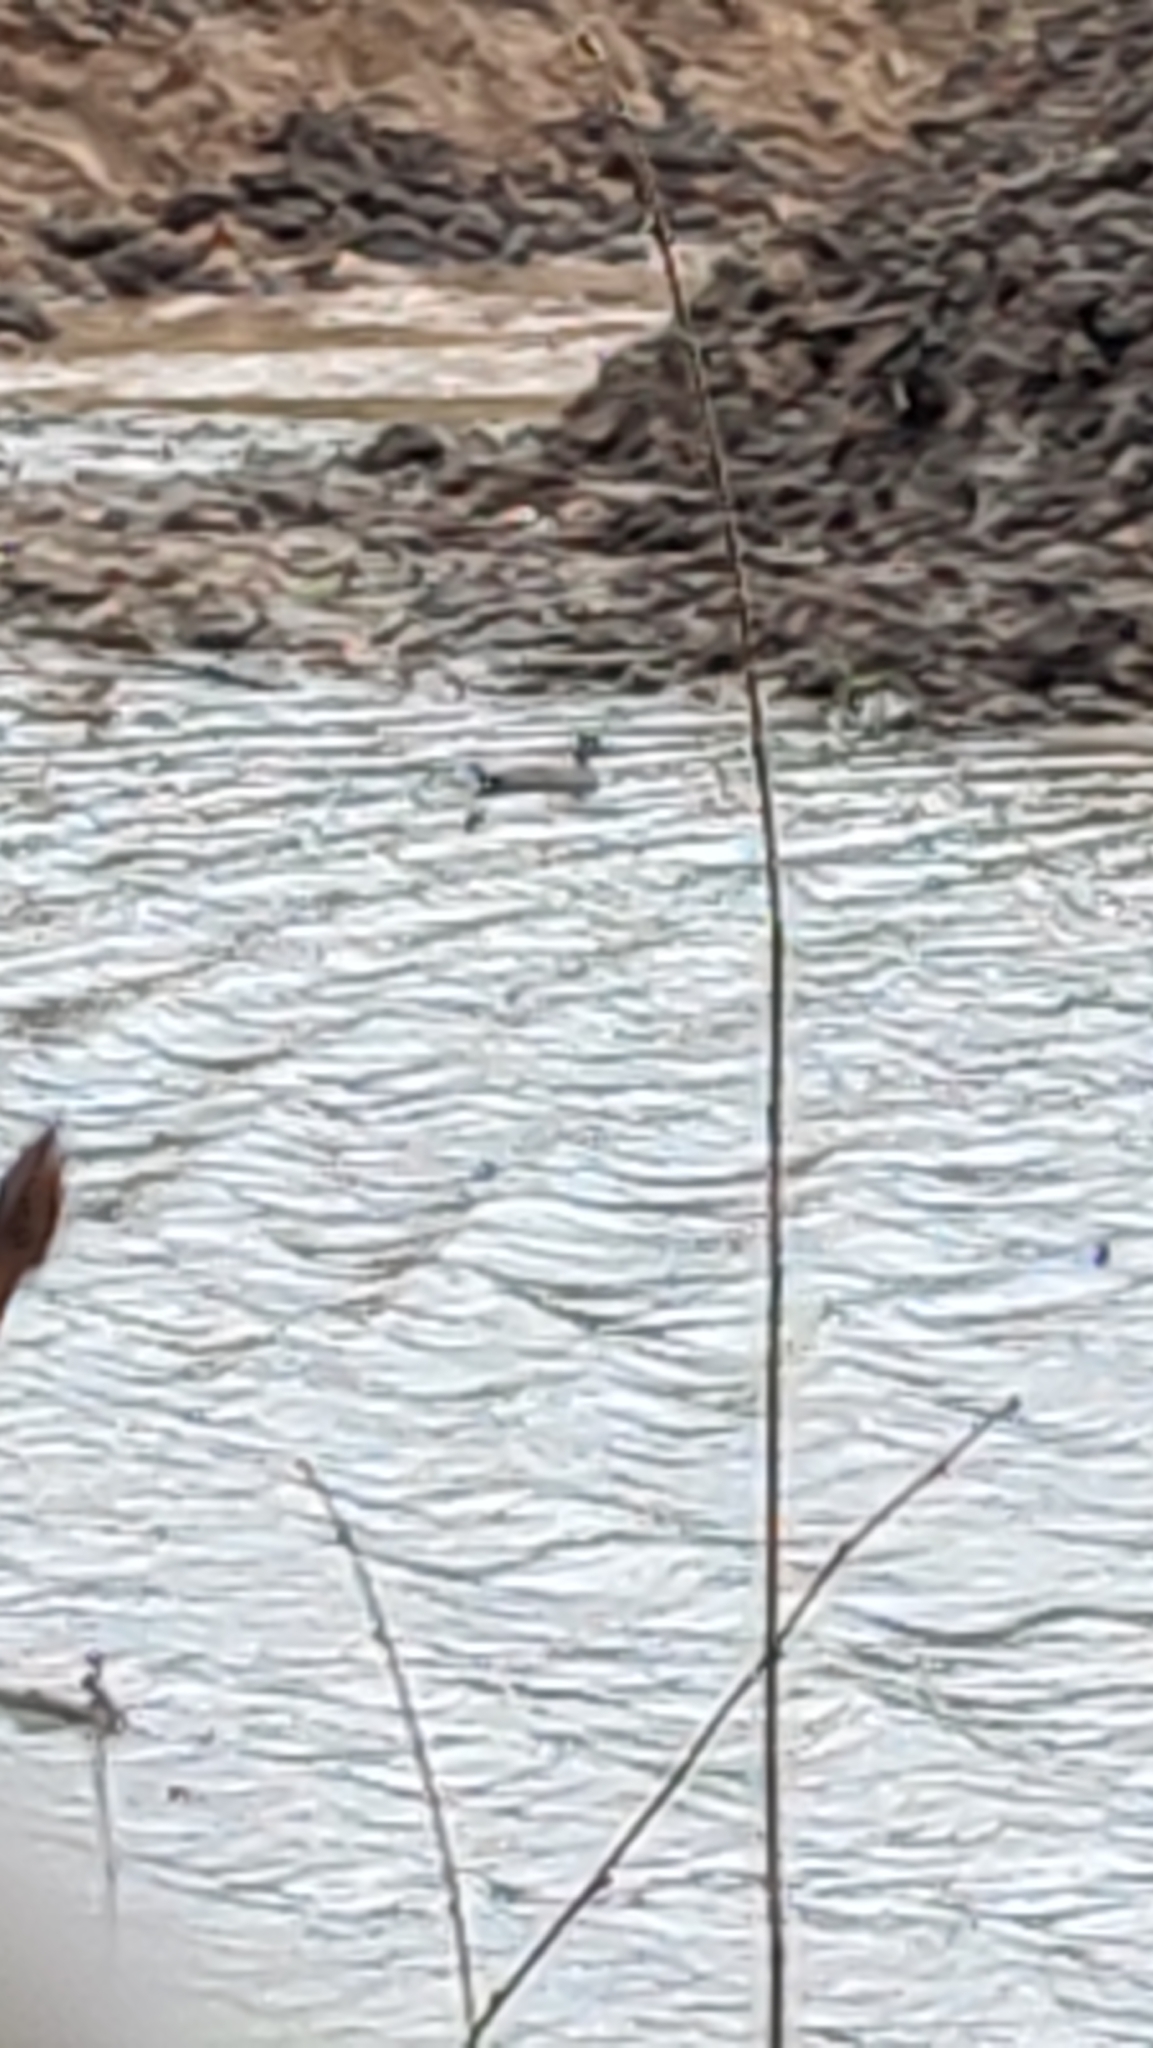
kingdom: Animalia
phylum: Chordata
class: Aves
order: Anseriformes
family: Anatidae
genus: Mareca
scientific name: Mareca strepera
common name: Gadwall
